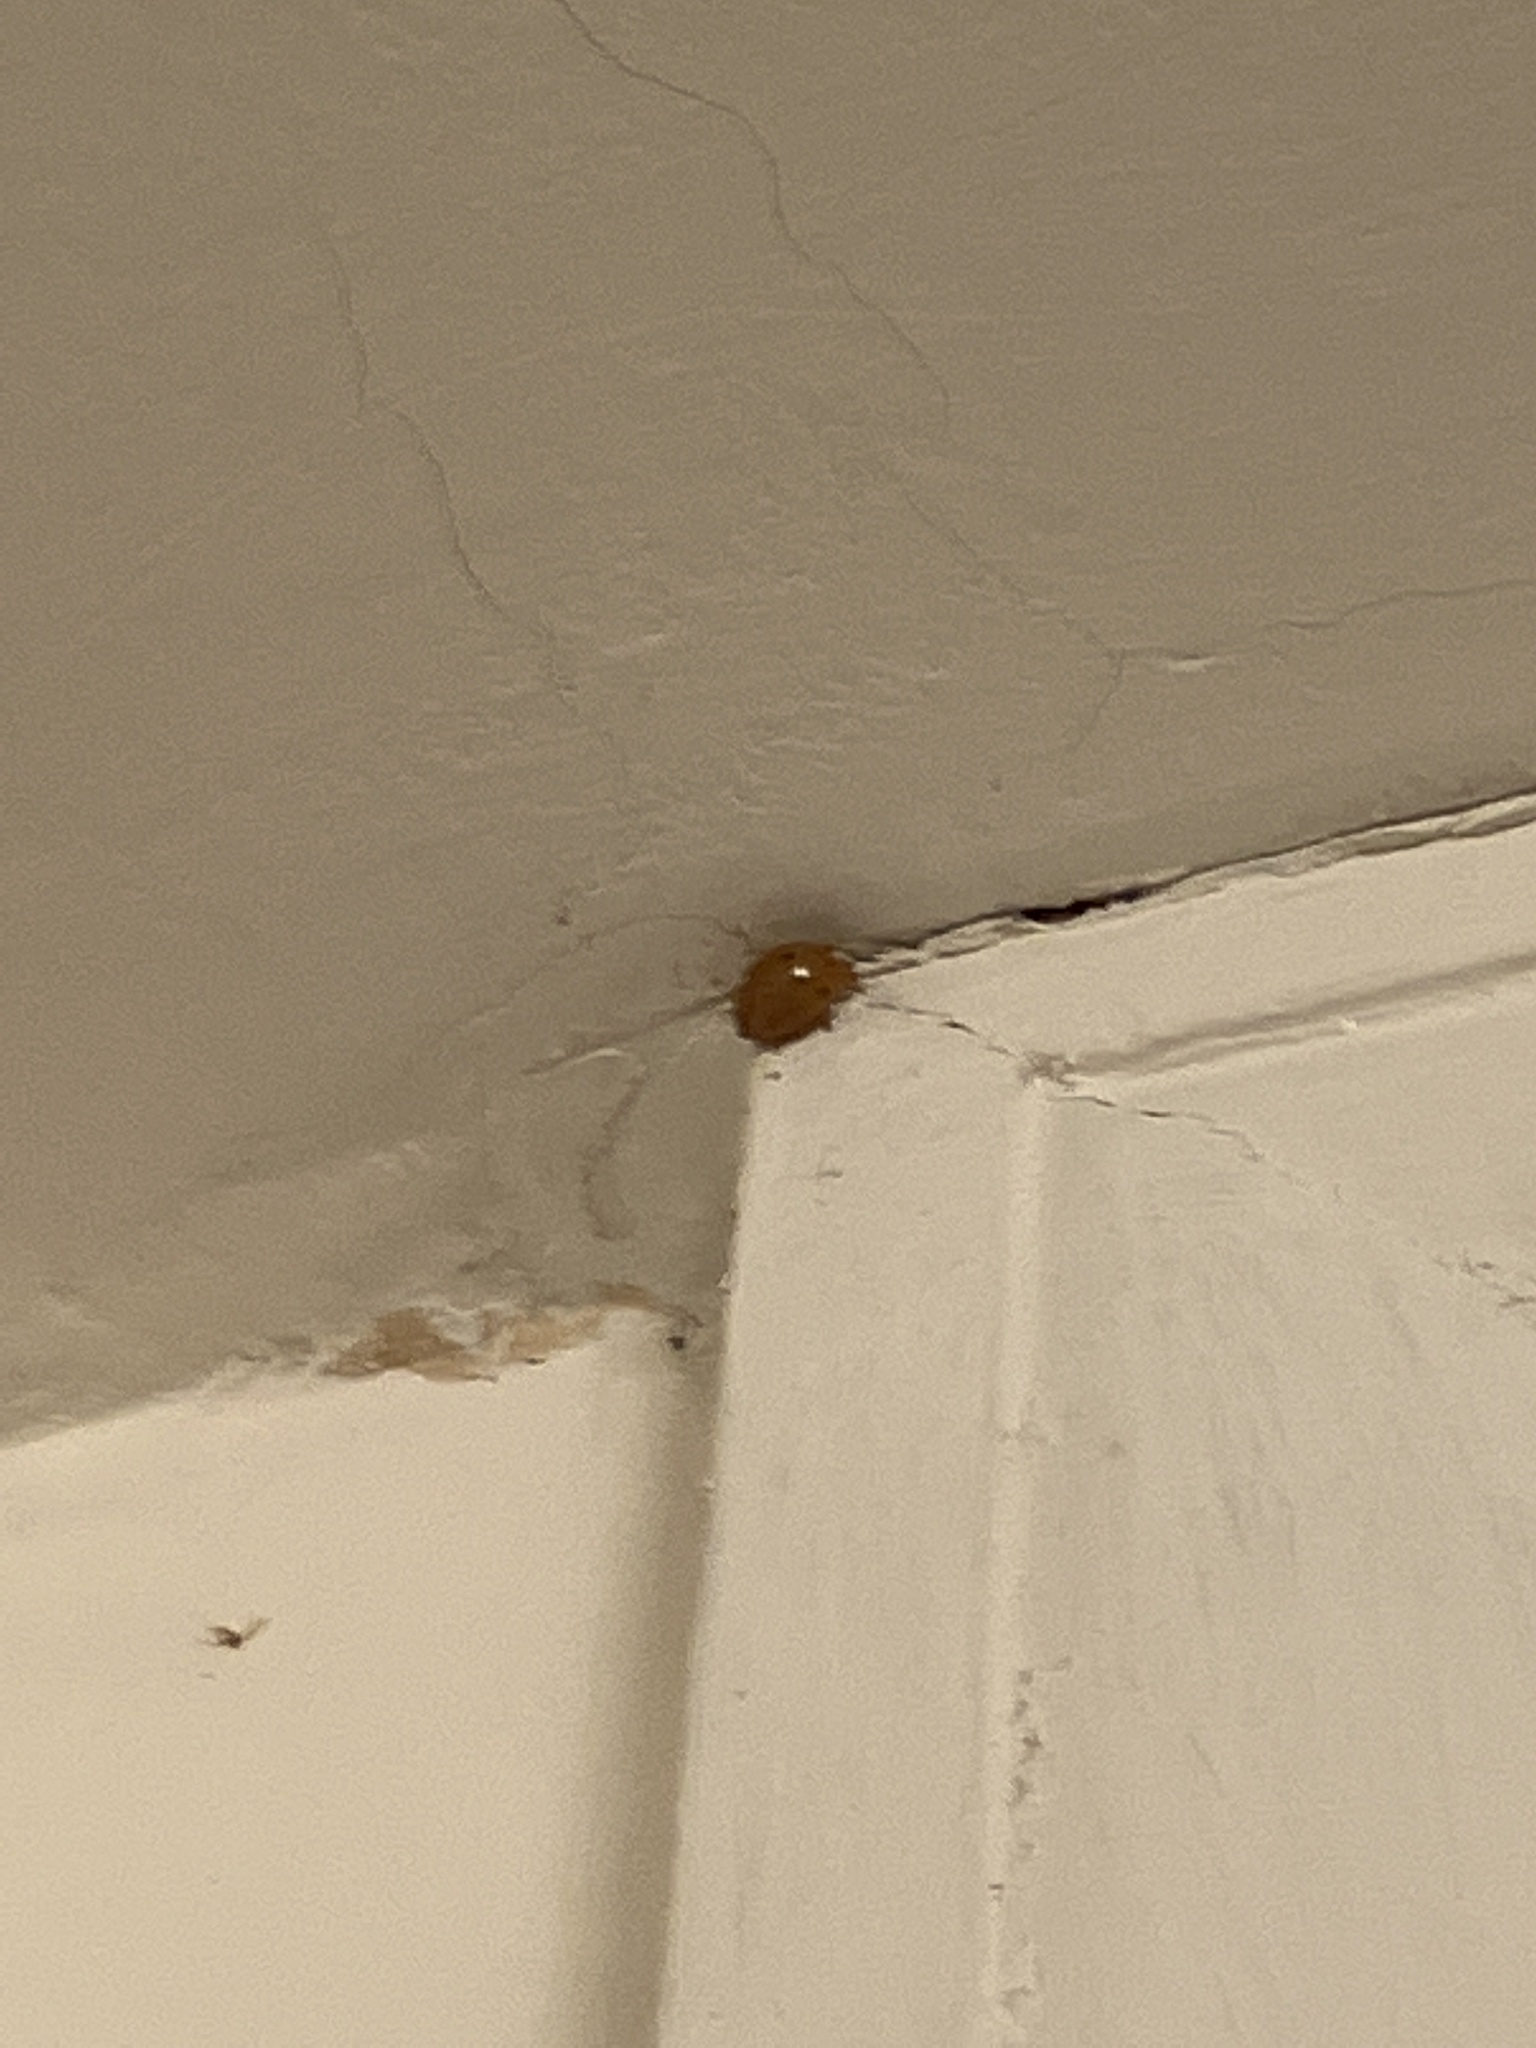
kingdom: Animalia
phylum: Arthropoda
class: Insecta
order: Coleoptera
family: Coccinellidae
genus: Harmonia
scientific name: Harmonia axyridis
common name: Harlequin ladybird
